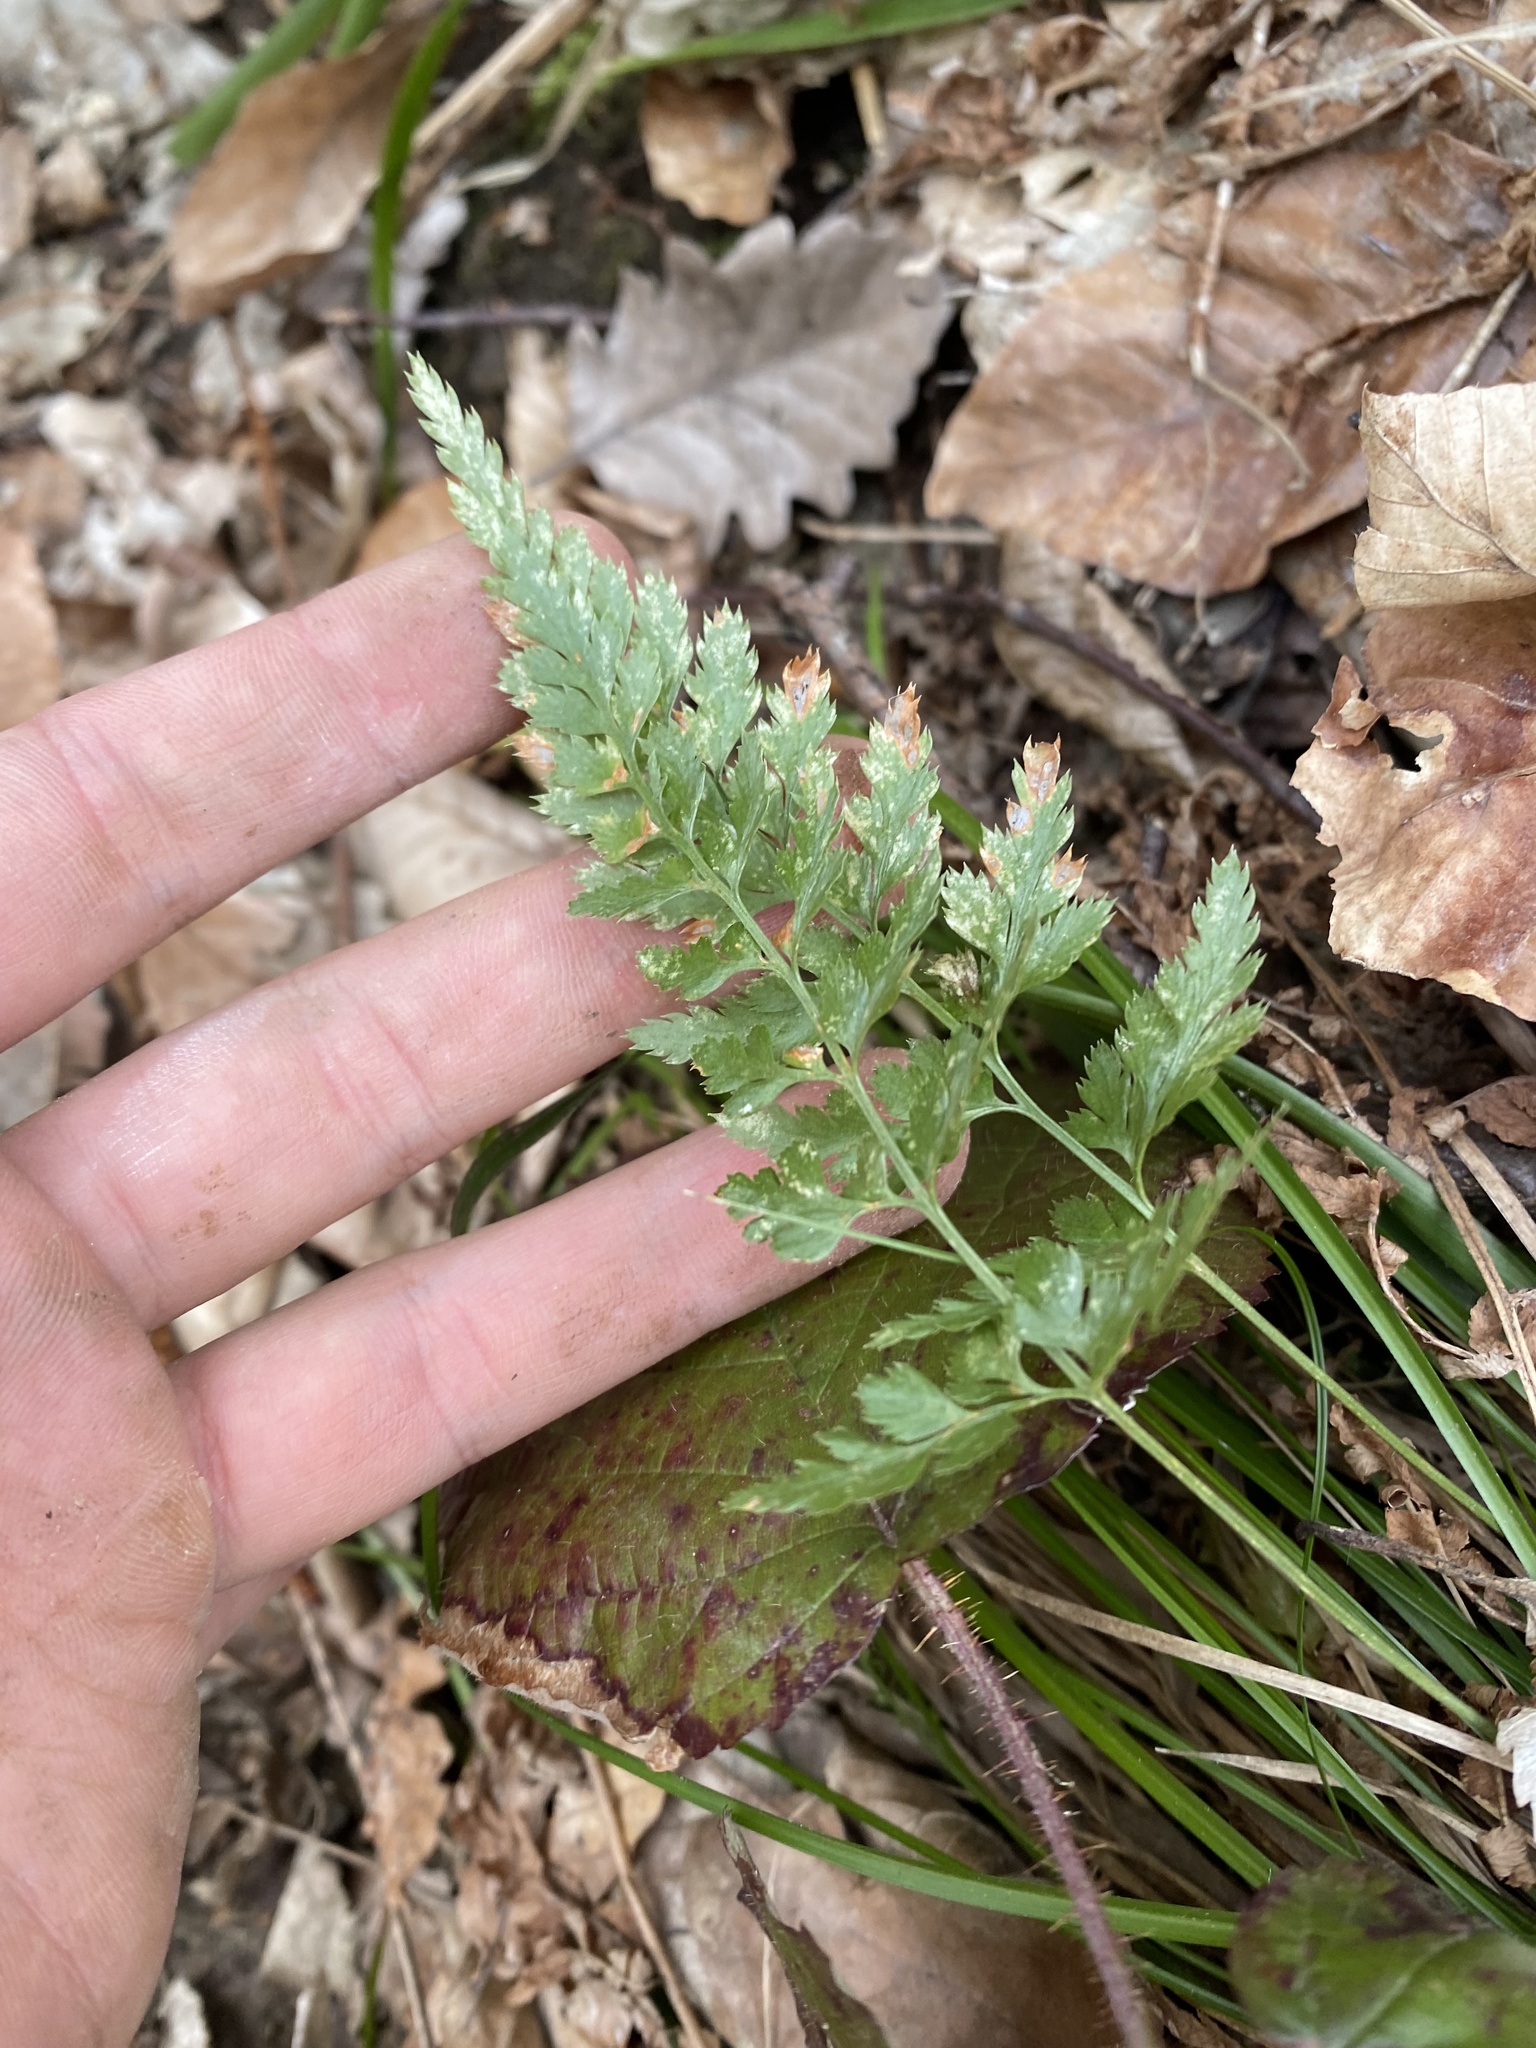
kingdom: Plantae
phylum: Tracheophyta
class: Polypodiopsida
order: Polypodiales
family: Aspleniaceae
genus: Asplenium
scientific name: Asplenium adiantum-nigrum
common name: Black spleenwort
